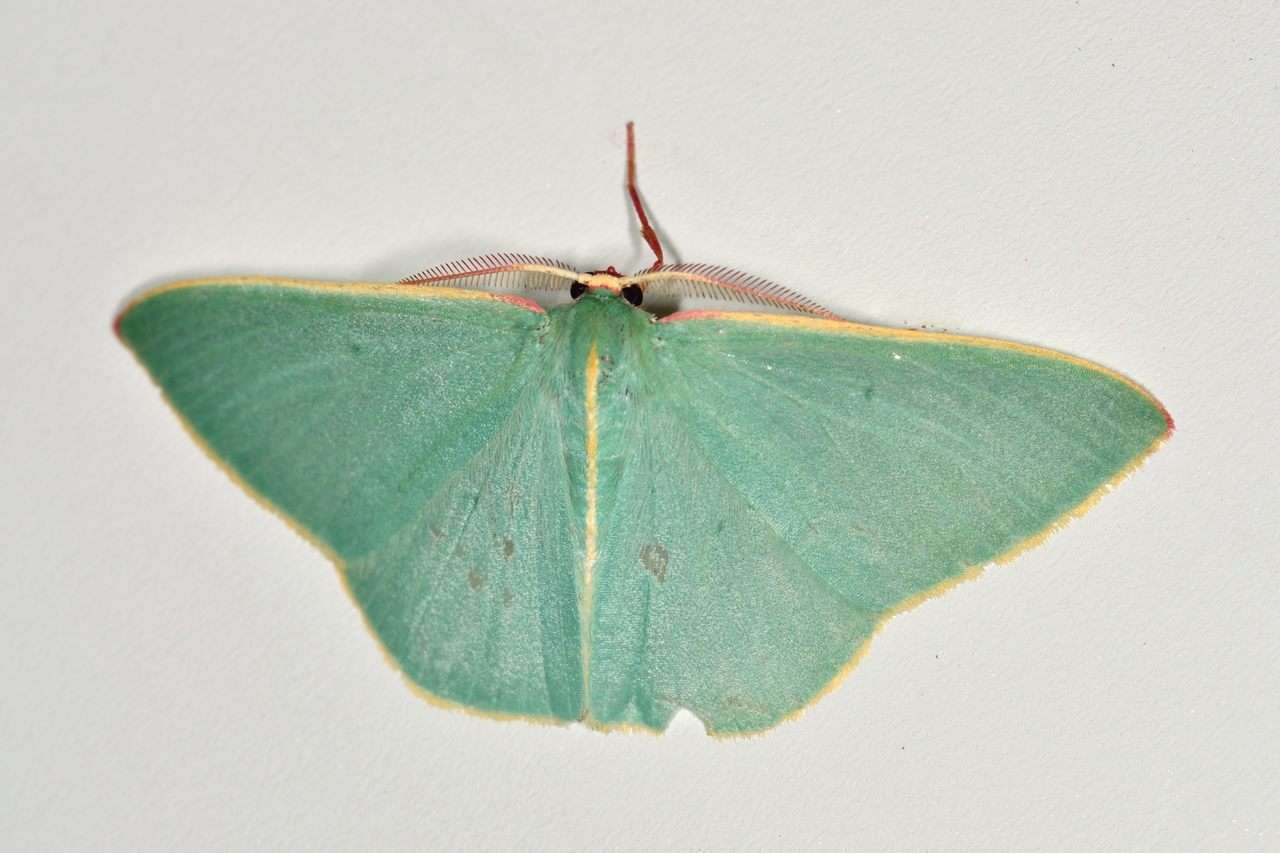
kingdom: Animalia
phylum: Arthropoda
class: Insecta
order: Lepidoptera
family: Geometridae
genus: Chlorocoma
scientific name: Chlorocoma assimilis
